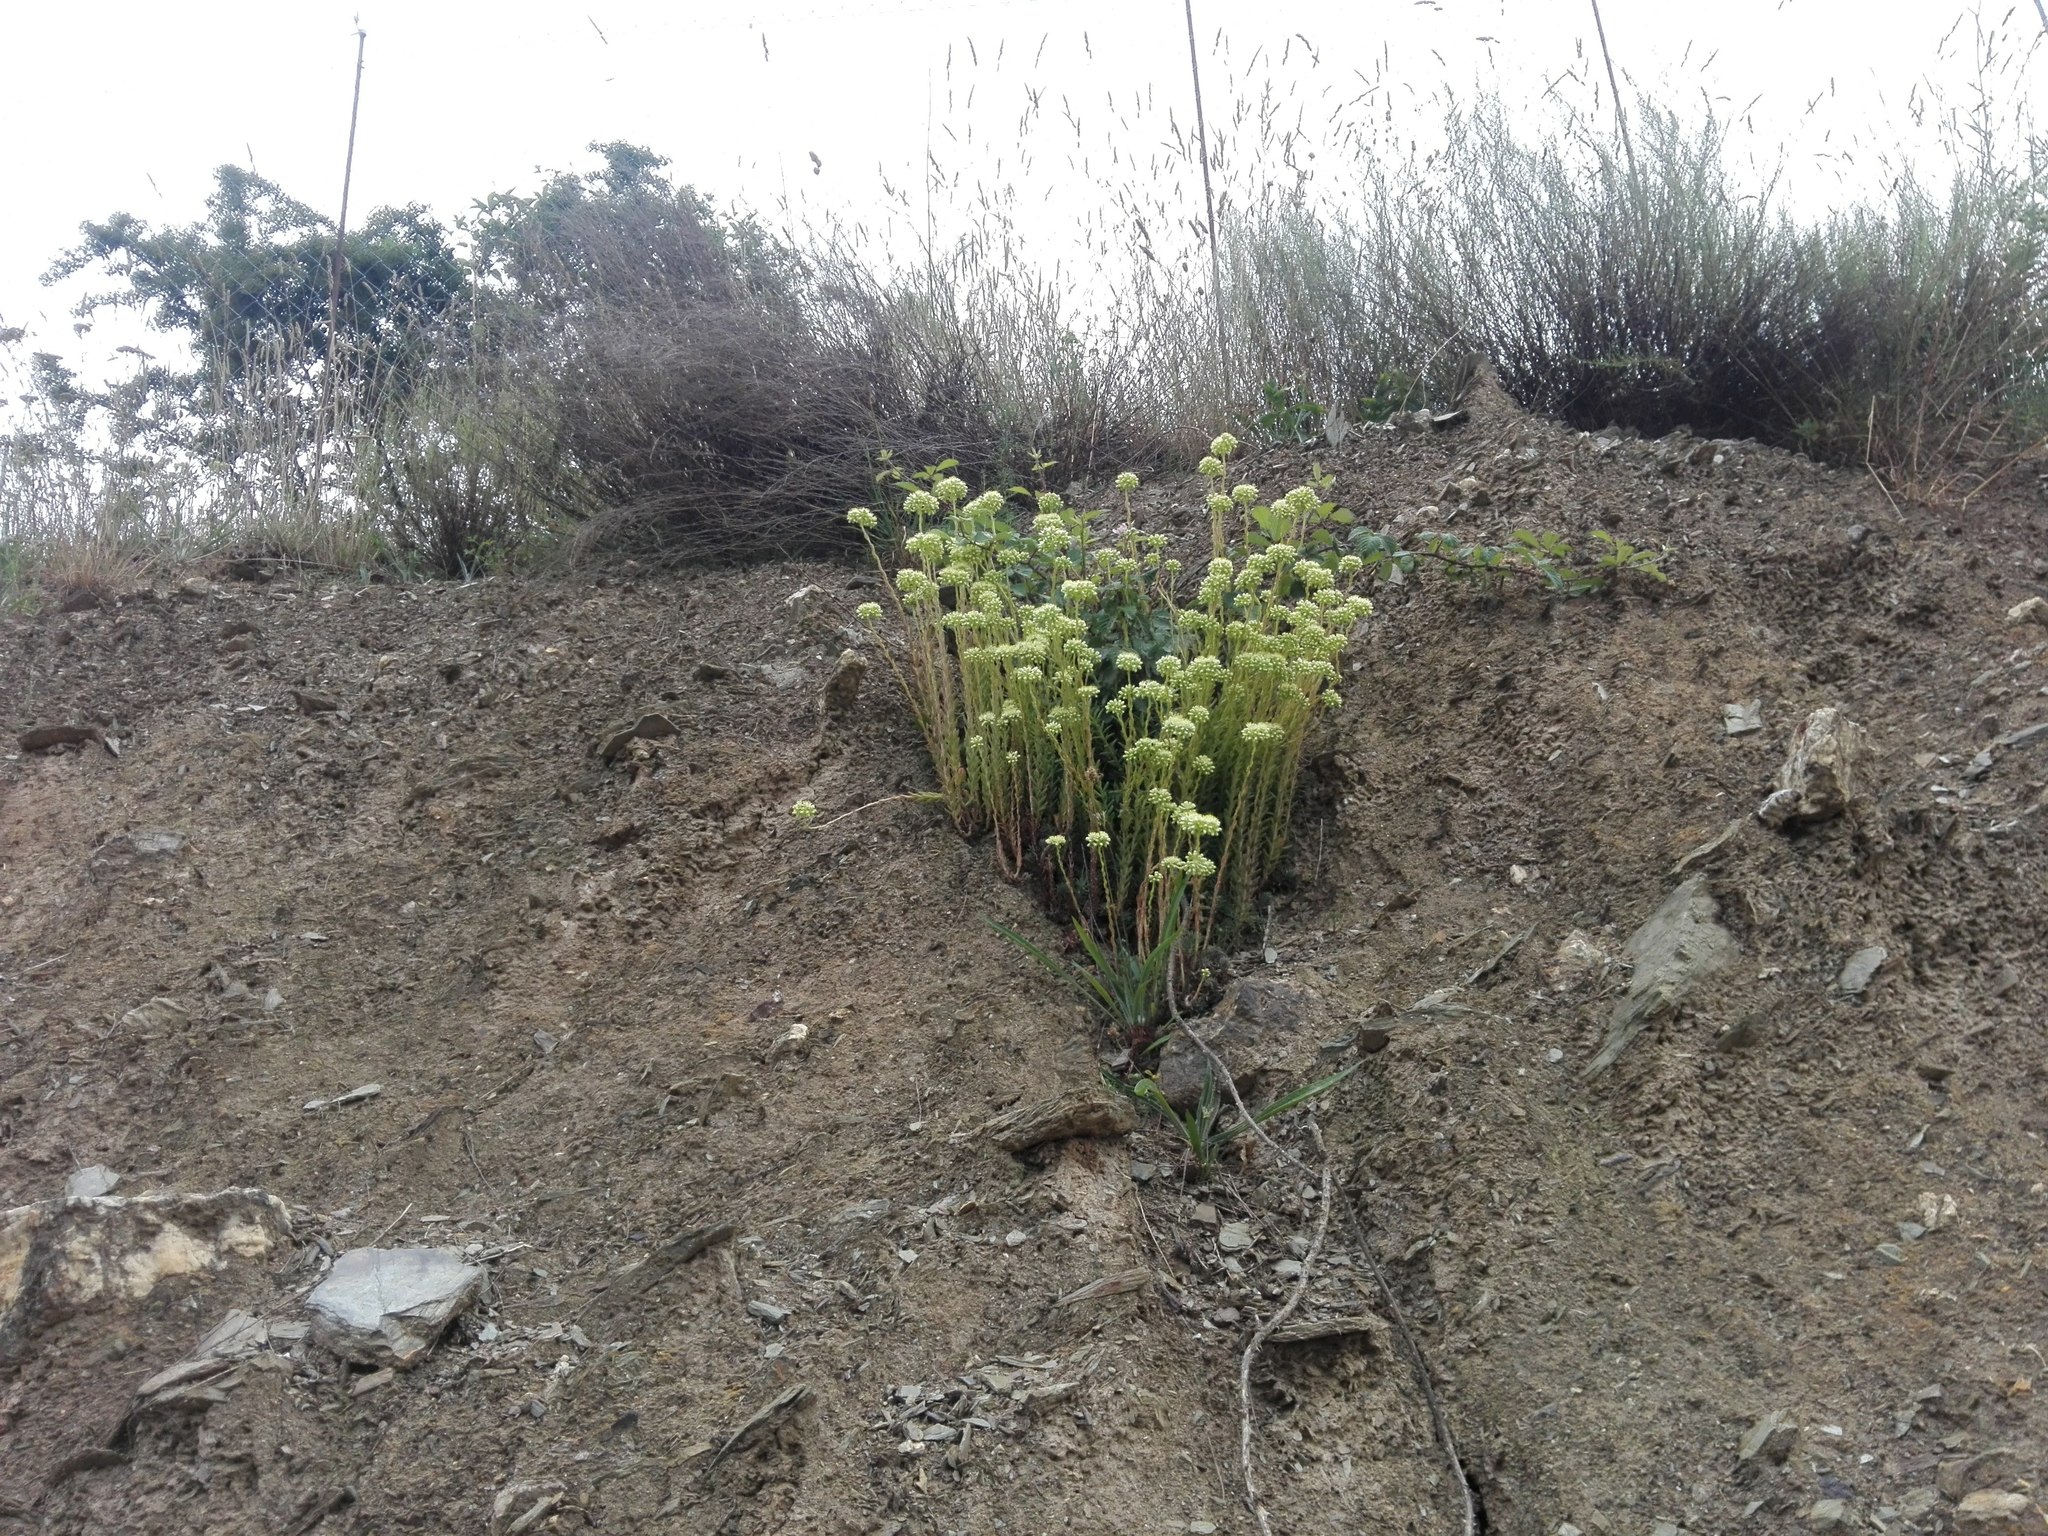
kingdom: Plantae
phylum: Tracheophyta
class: Magnoliopsida
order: Saxifragales
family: Crassulaceae
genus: Petrosedum
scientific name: Petrosedum sediforme
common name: Pale stonecrop
